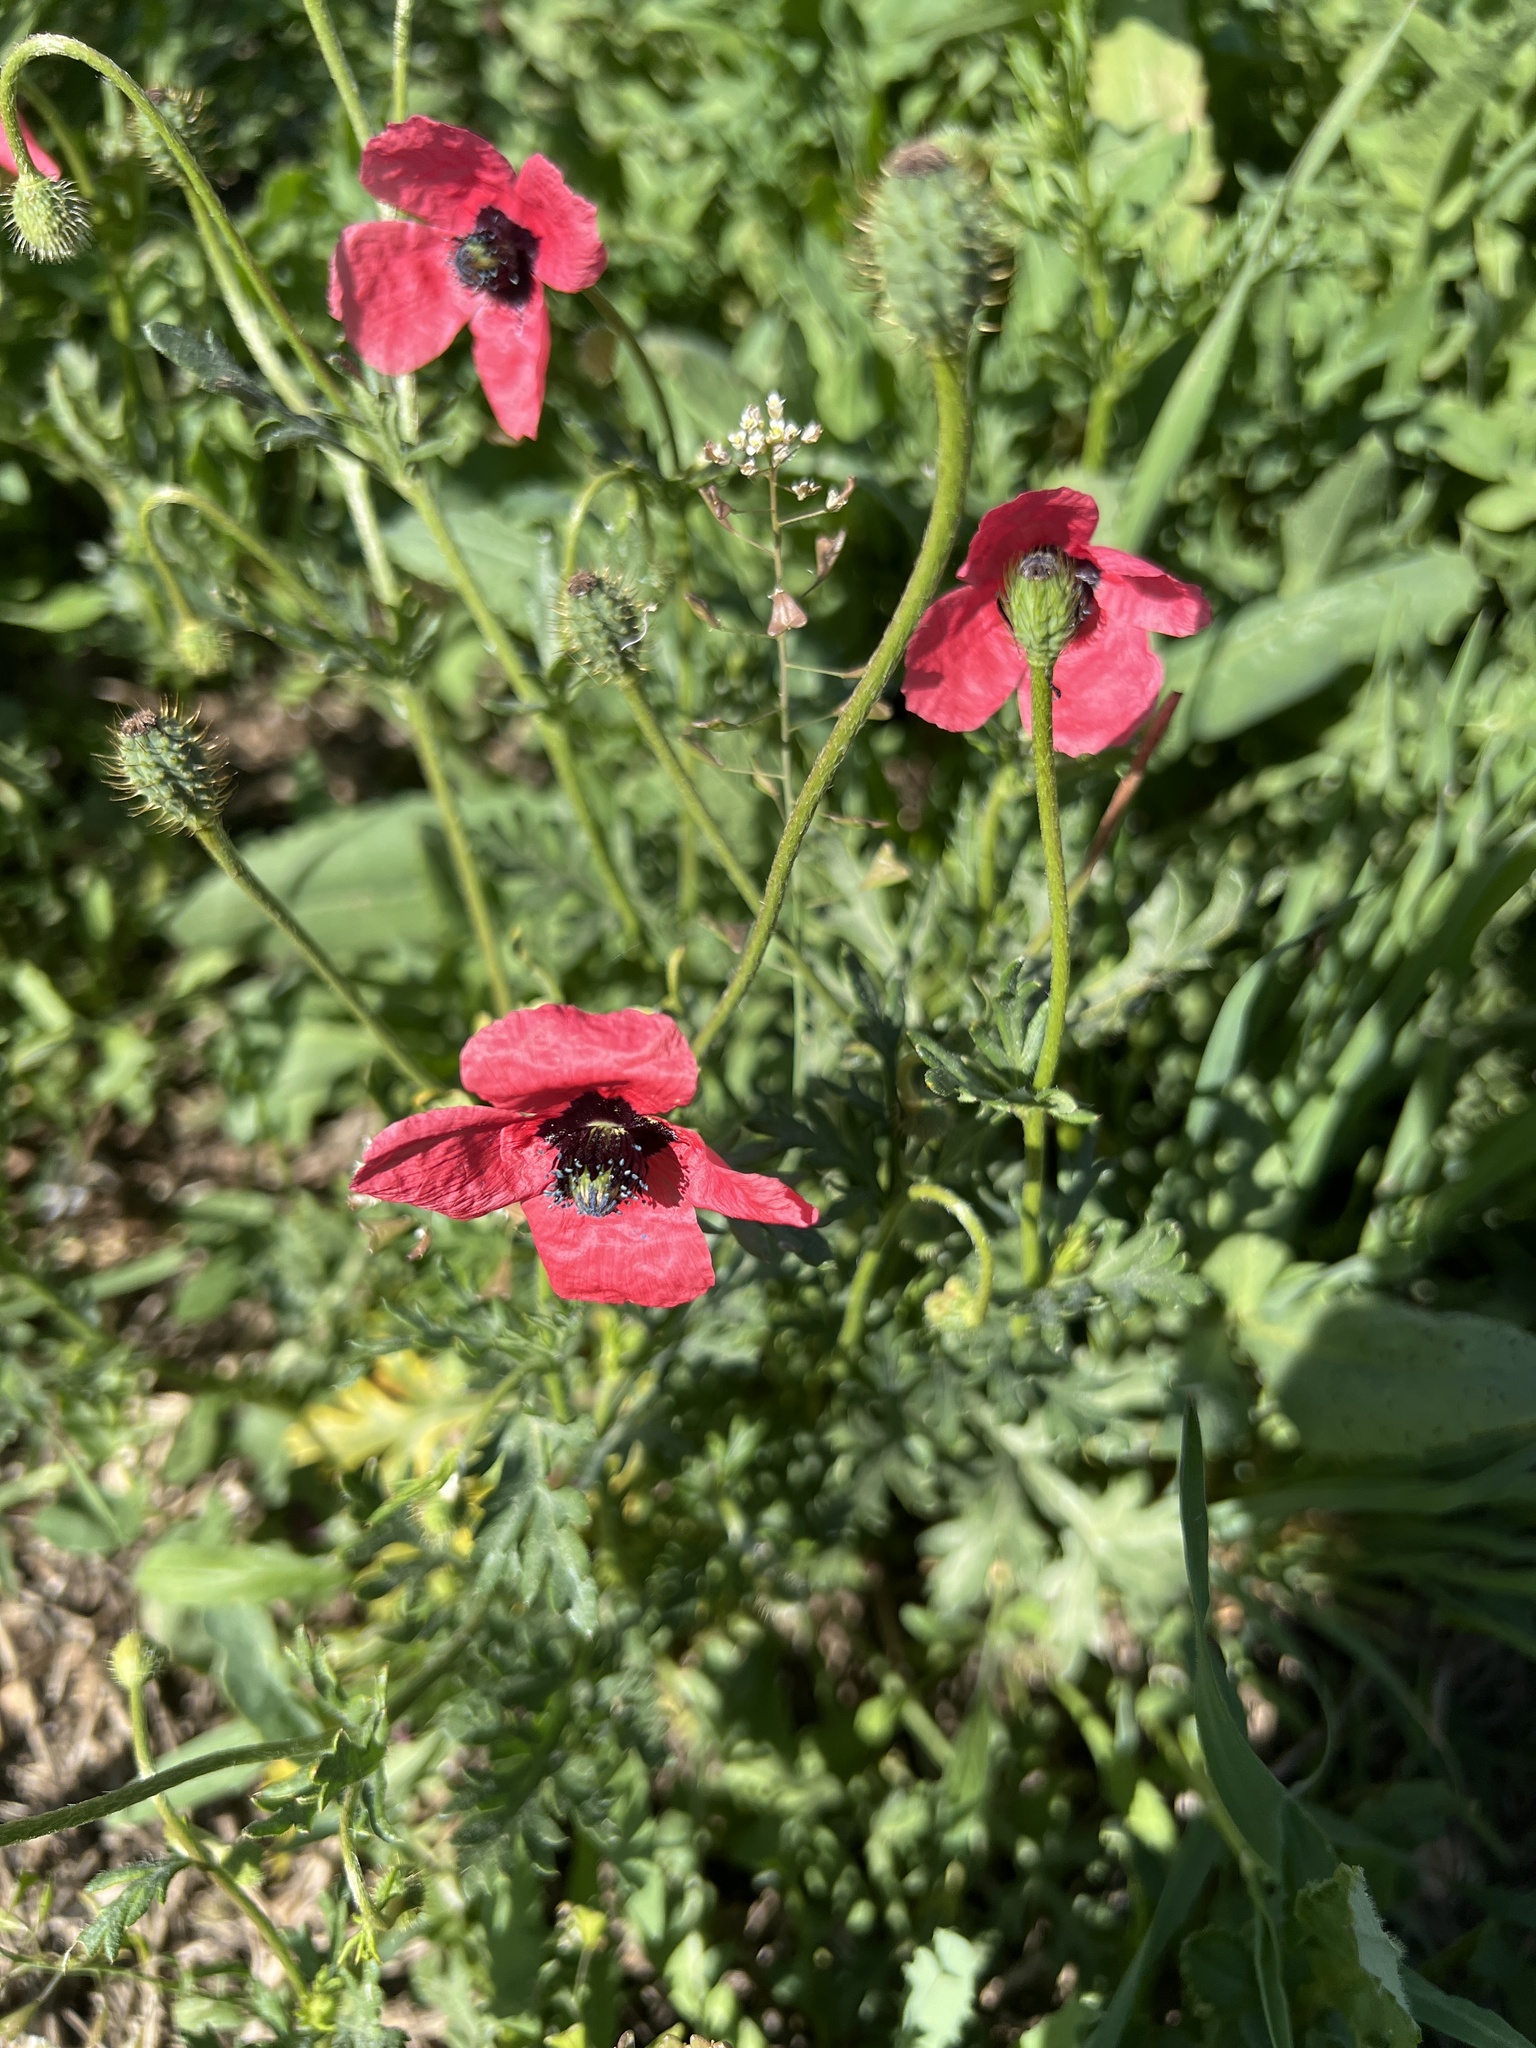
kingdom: Plantae
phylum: Tracheophyta
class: Magnoliopsida
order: Ranunculales
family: Papaveraceae
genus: Roemeria
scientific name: Roemeria hispida
